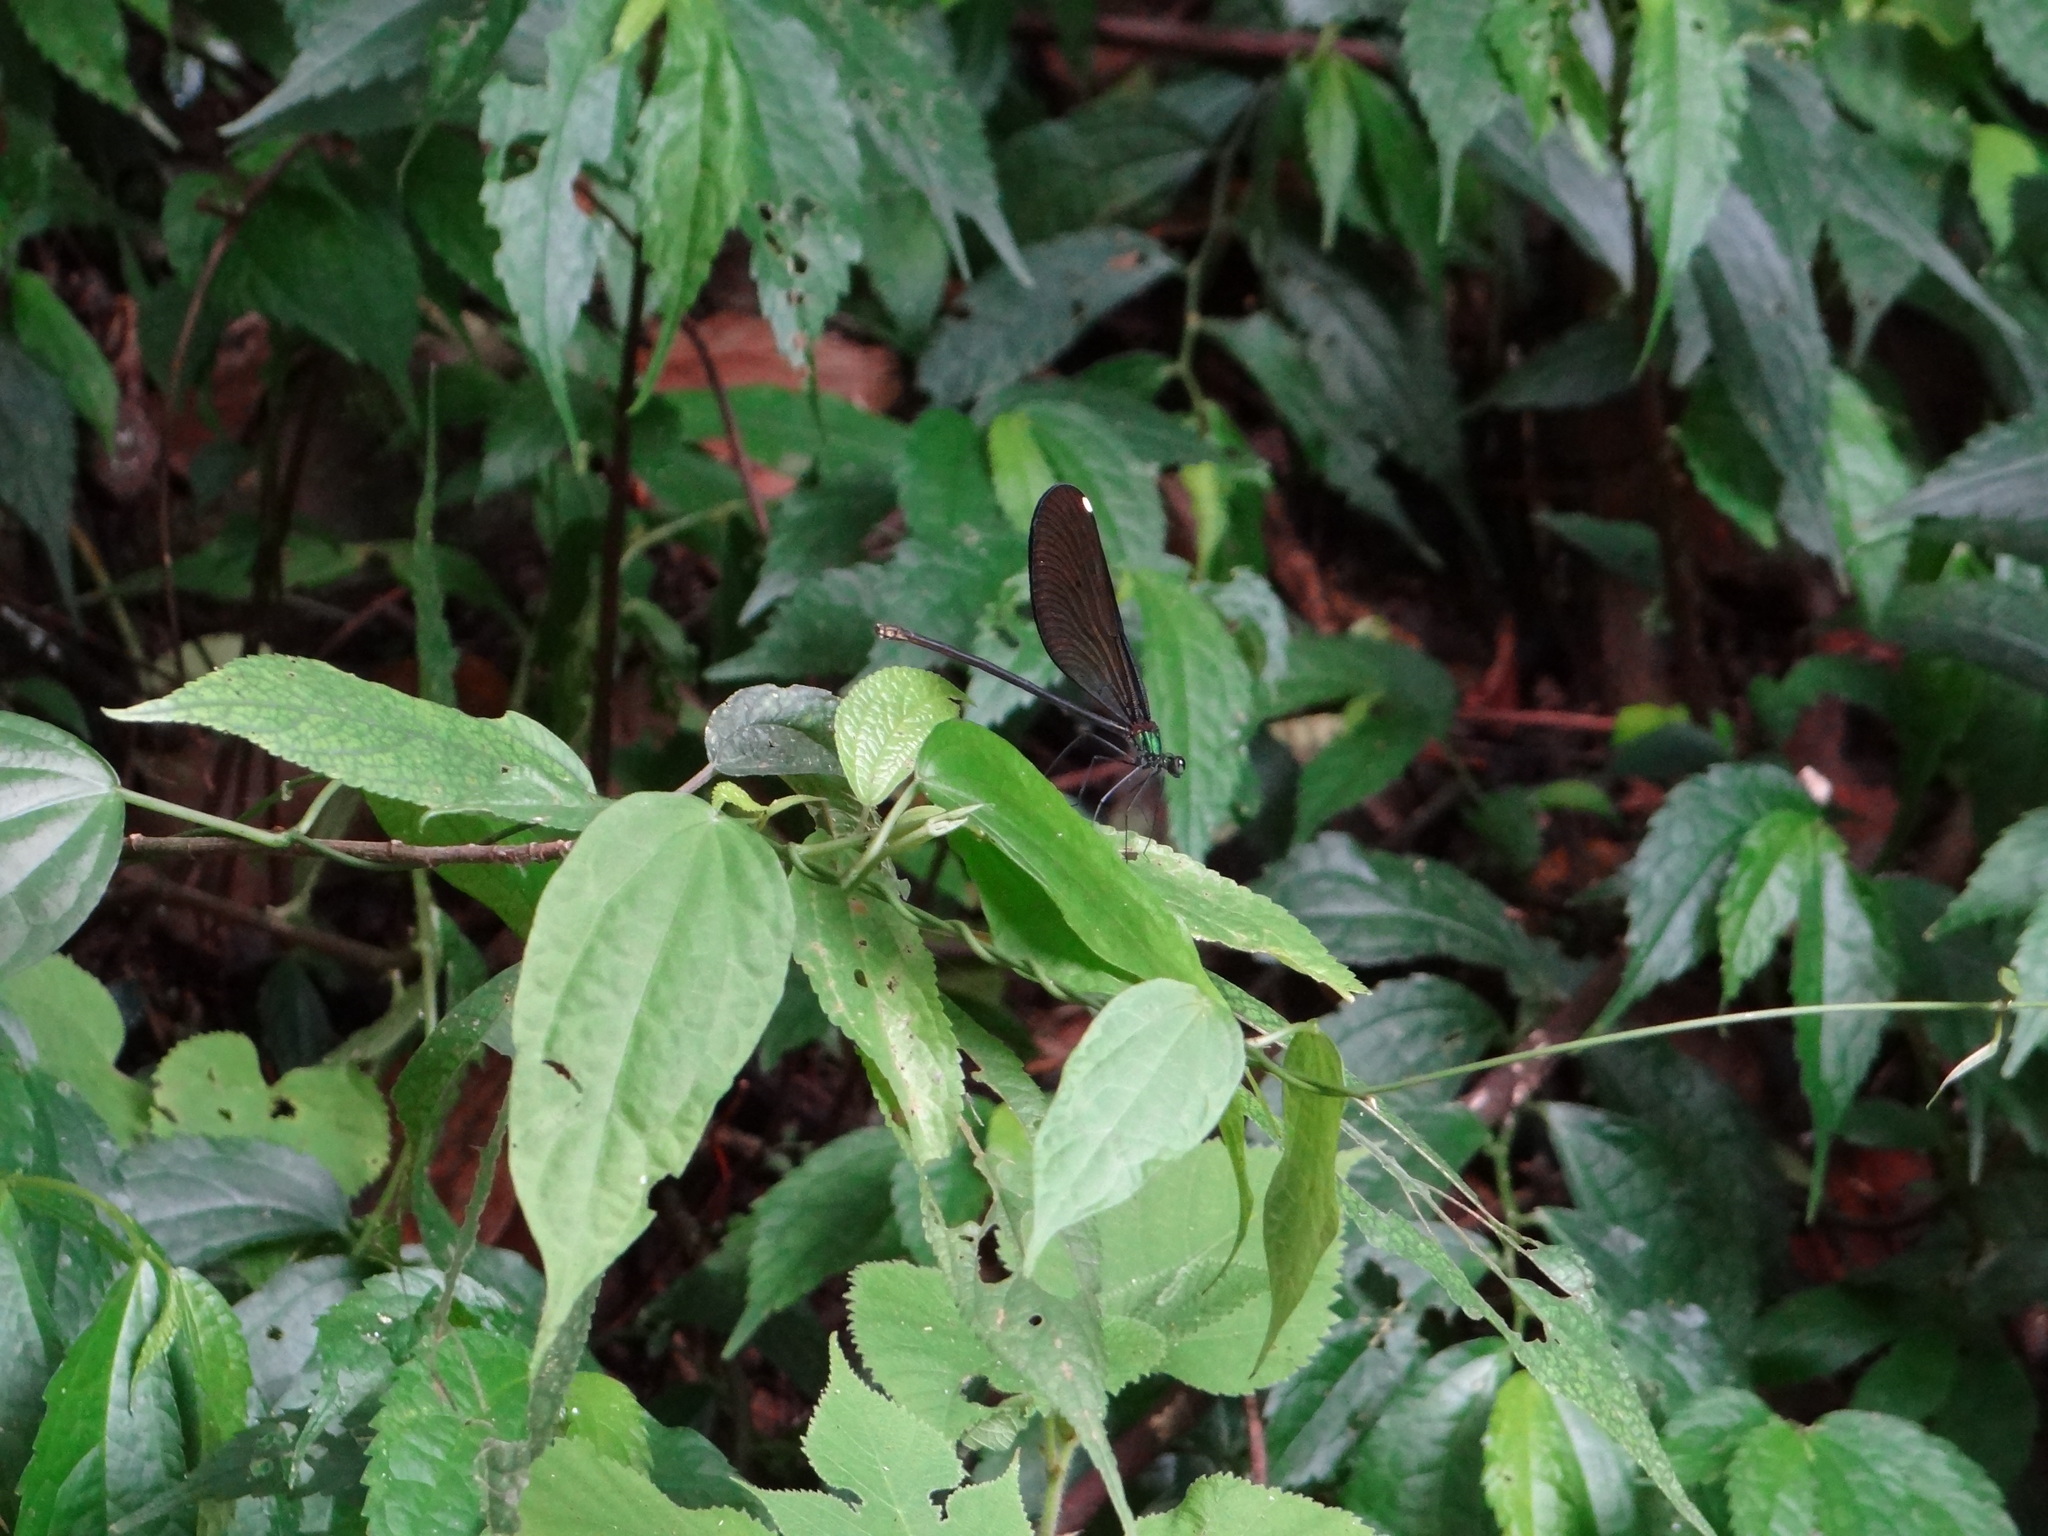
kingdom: Animalia
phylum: Arthropoda
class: Insecta
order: Odonata
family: Calopterygidae
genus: Matrona
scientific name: Matrona cyanoptera
